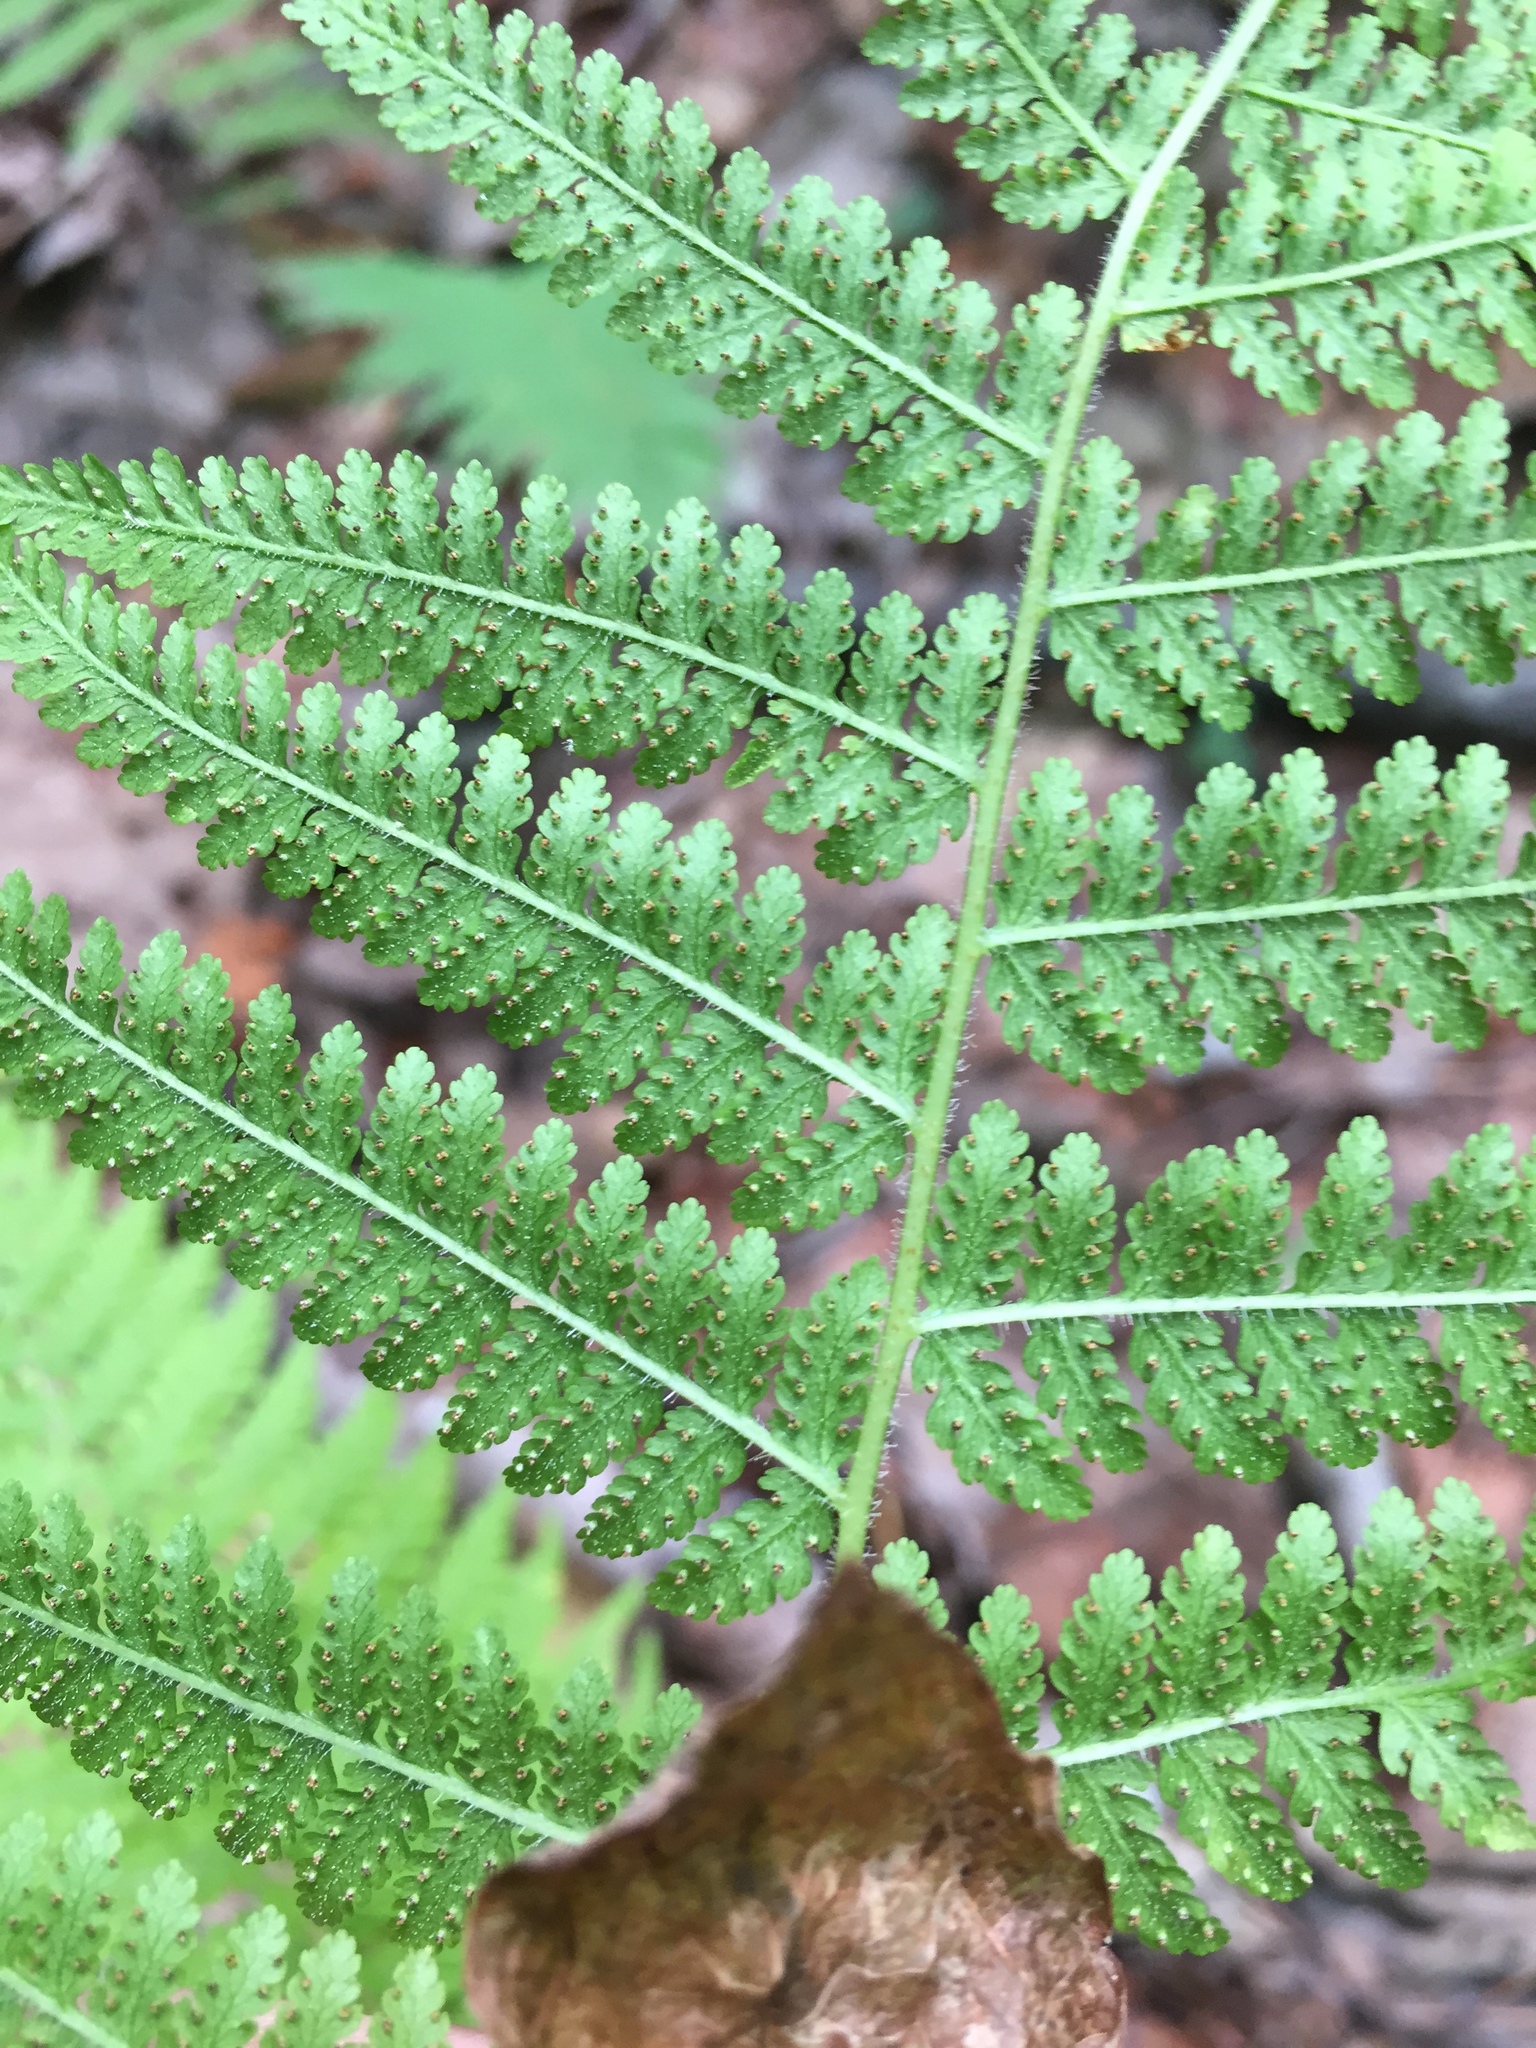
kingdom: Plantae
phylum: Tracheophyta
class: Polypodiopsida
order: Polypodiales
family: Dennstaedtiaceae
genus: Sitobolium
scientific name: Sitobolium punctilobum
